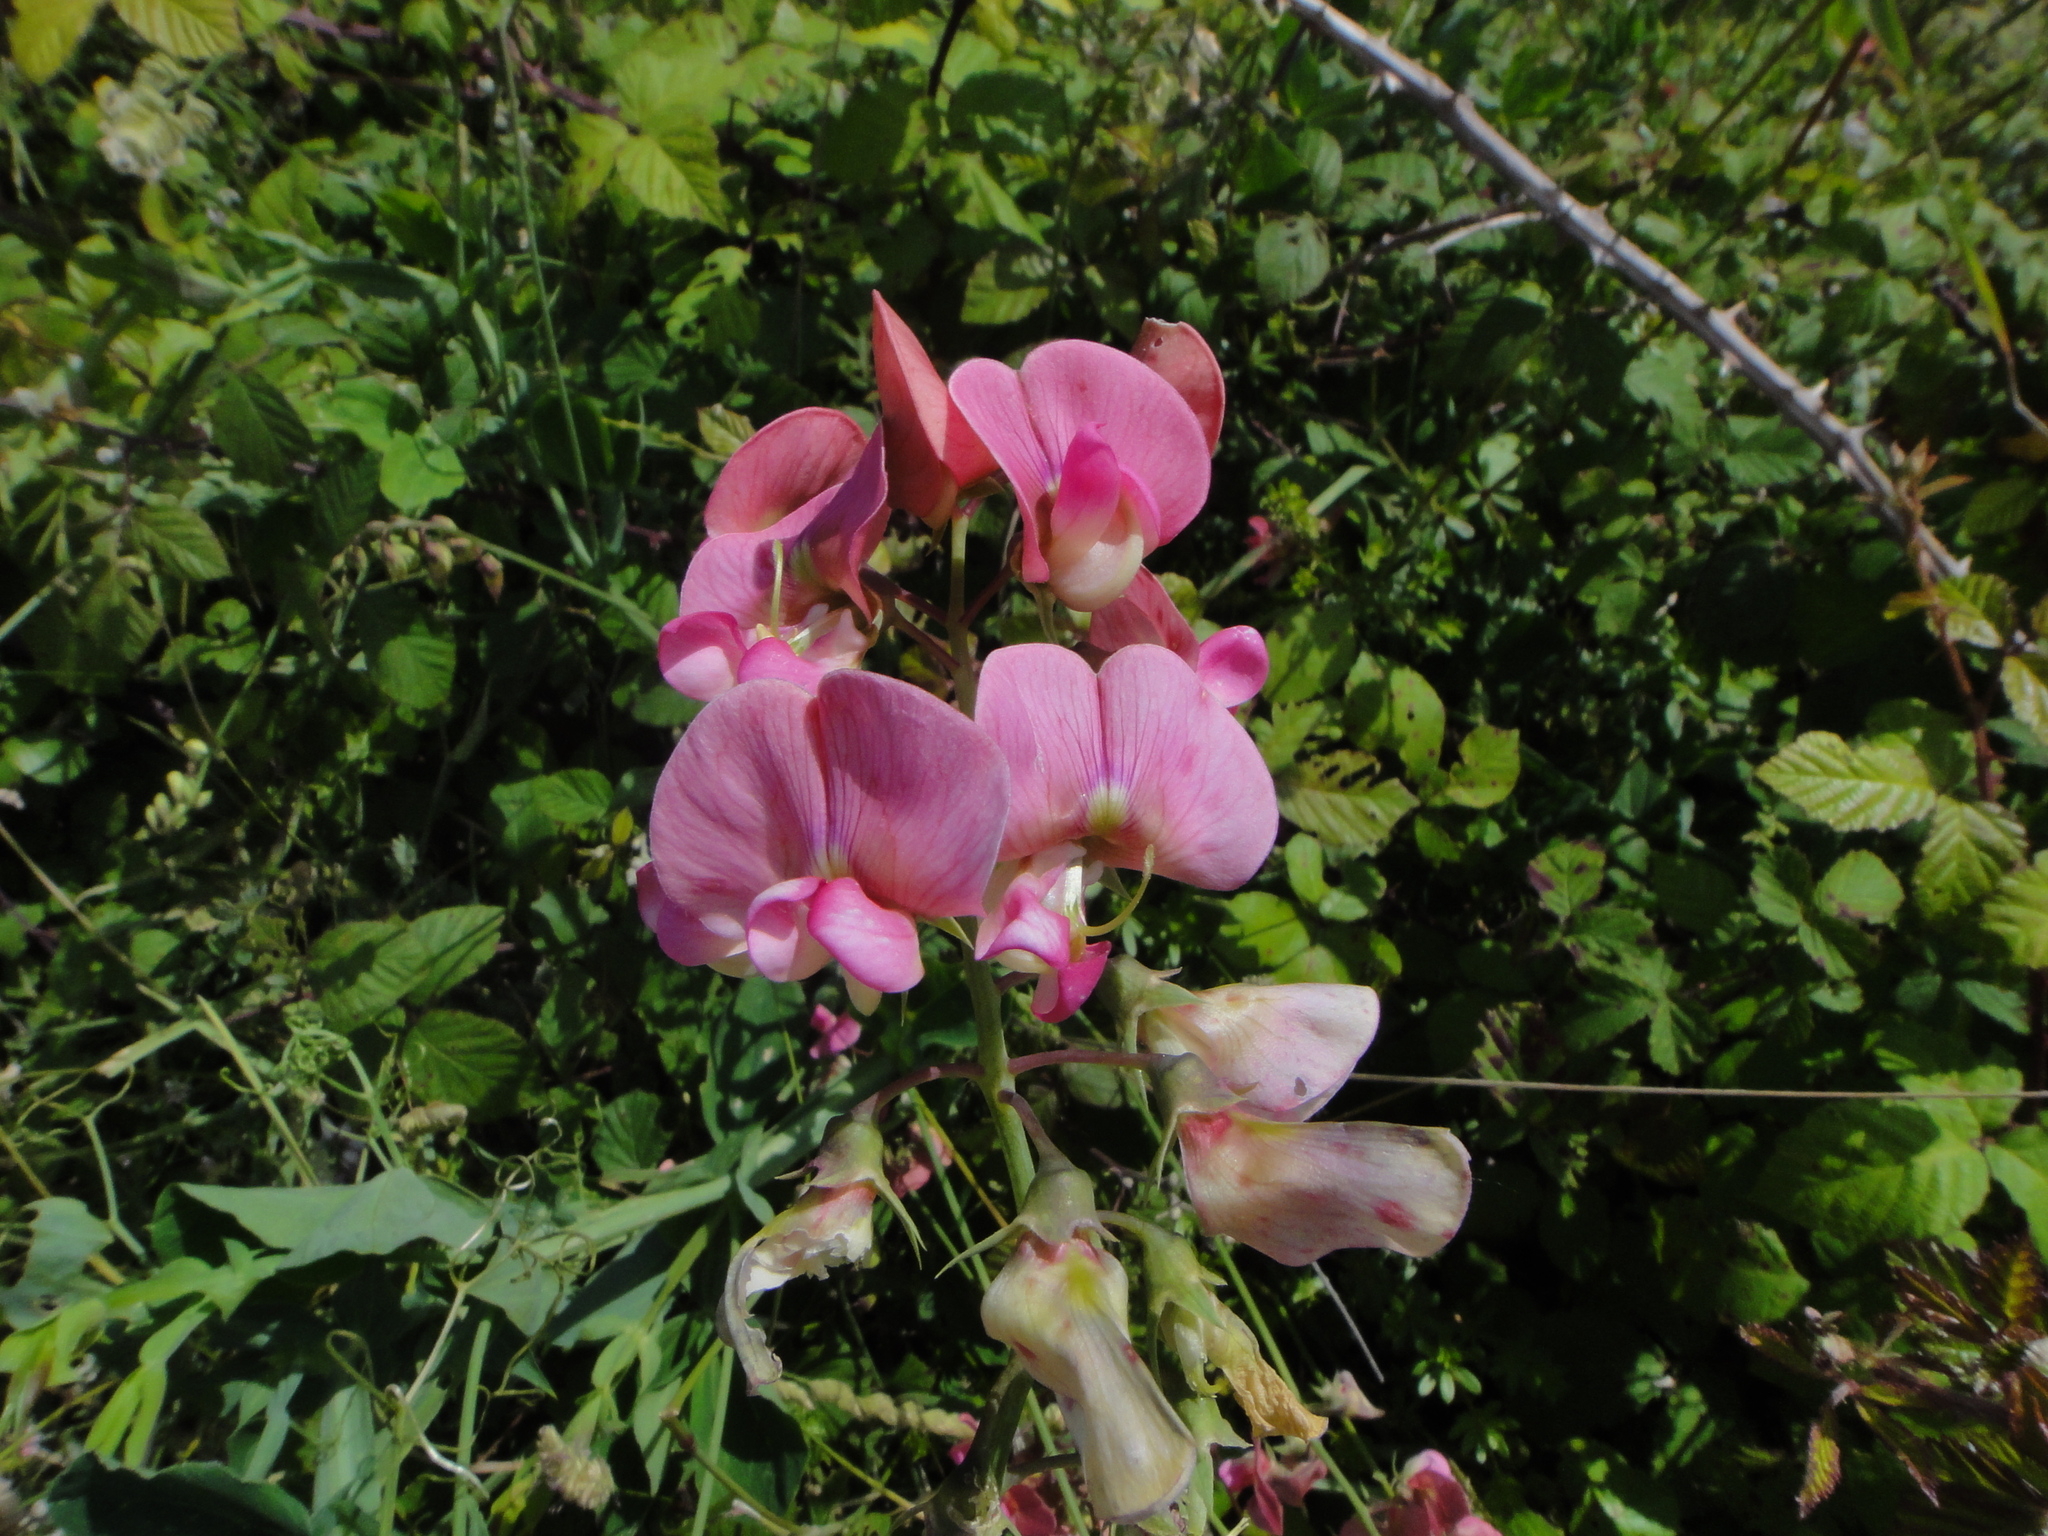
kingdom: Plantae
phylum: Tracheophyta
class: Magnoliopsida
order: Fabales
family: Fabaceae
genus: Lathyrus
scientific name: Lathyrus latifolius
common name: Perennial pea
